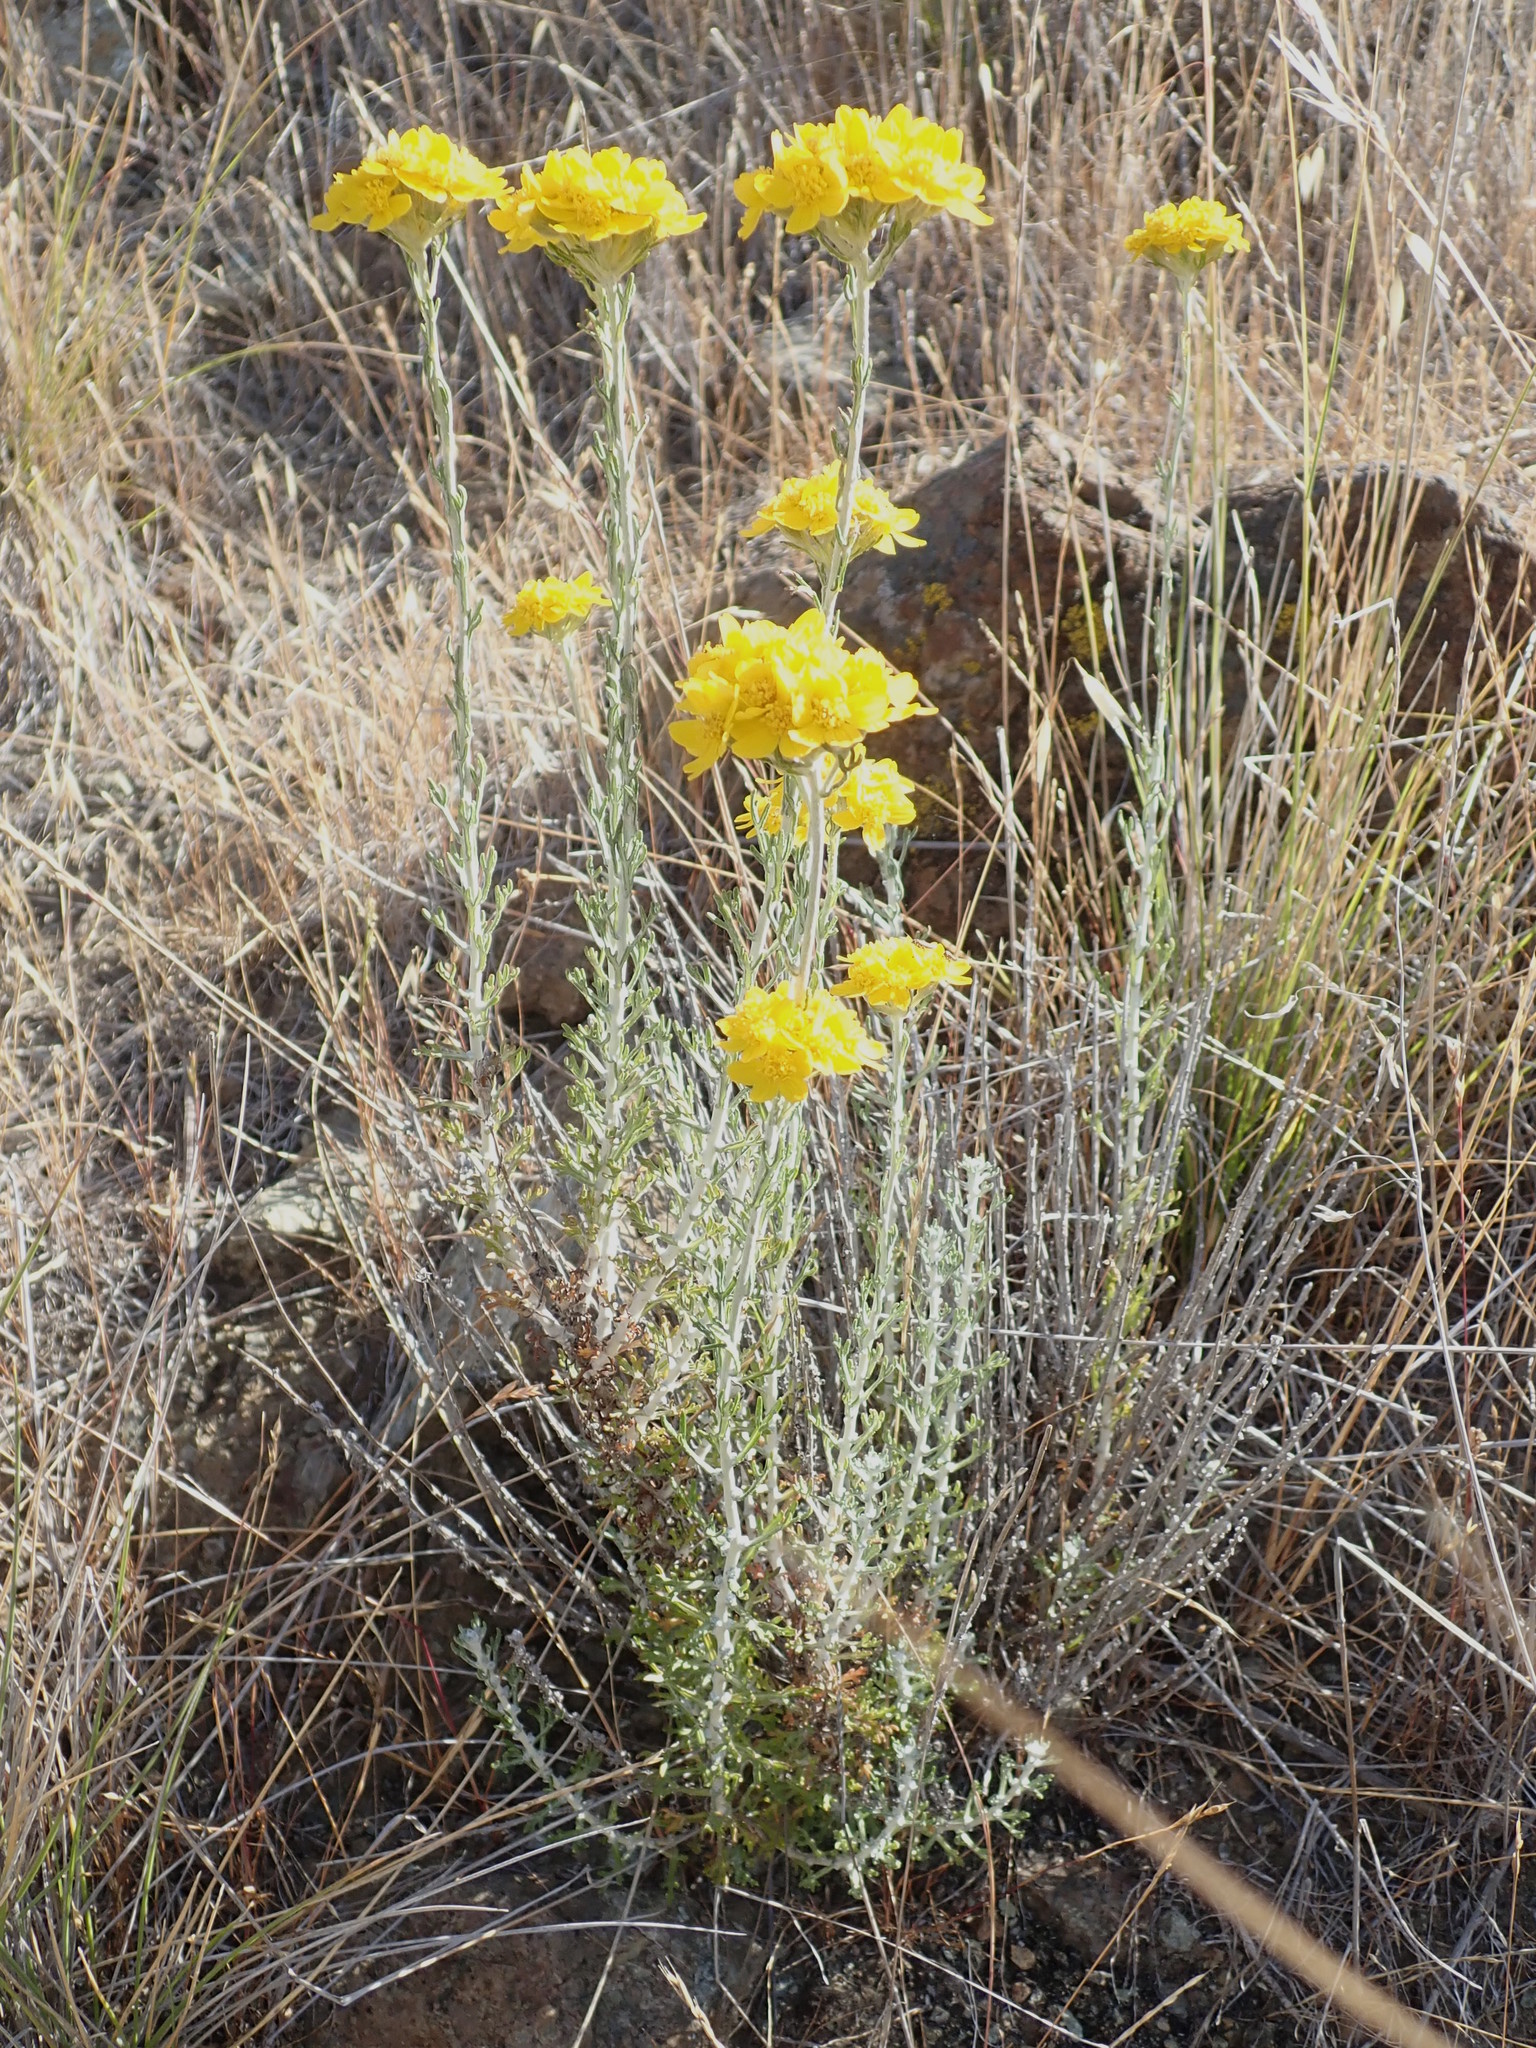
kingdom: Plantae
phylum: Tracheophyta
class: Magnoliopsida
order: Asterales
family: Asteraceae
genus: Eriophyllum
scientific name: Eriophyllum confertiflorum
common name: Golden-yarrow
